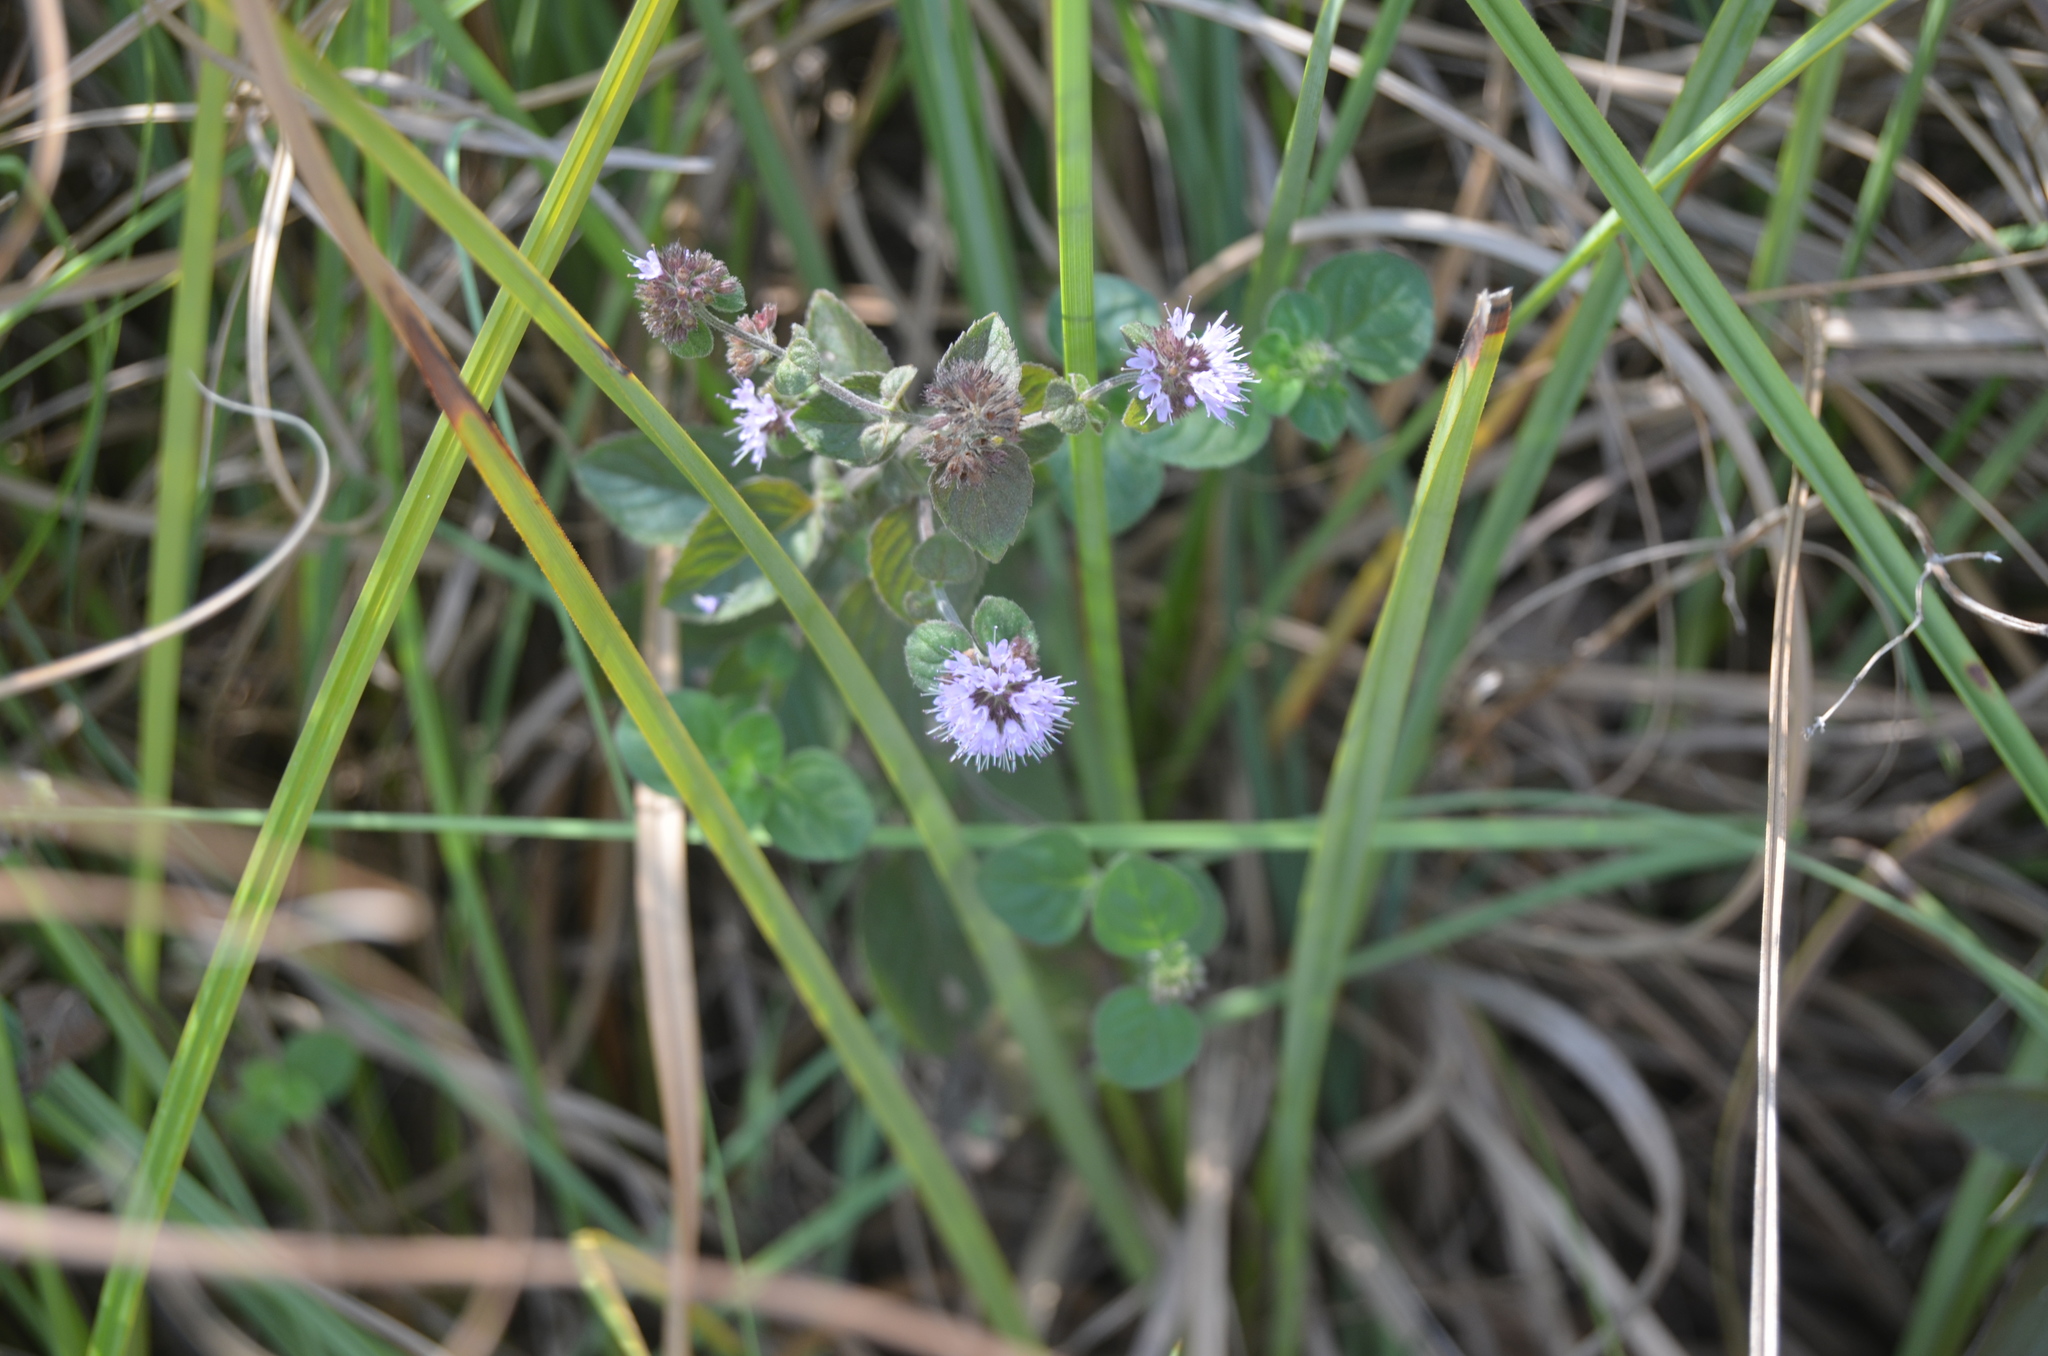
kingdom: Plantae
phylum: Tracheophyta
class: Magnoliopsida
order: Lamiales
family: Lamiaceae
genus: Mentha
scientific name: Mentha aquatica
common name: Water mint
